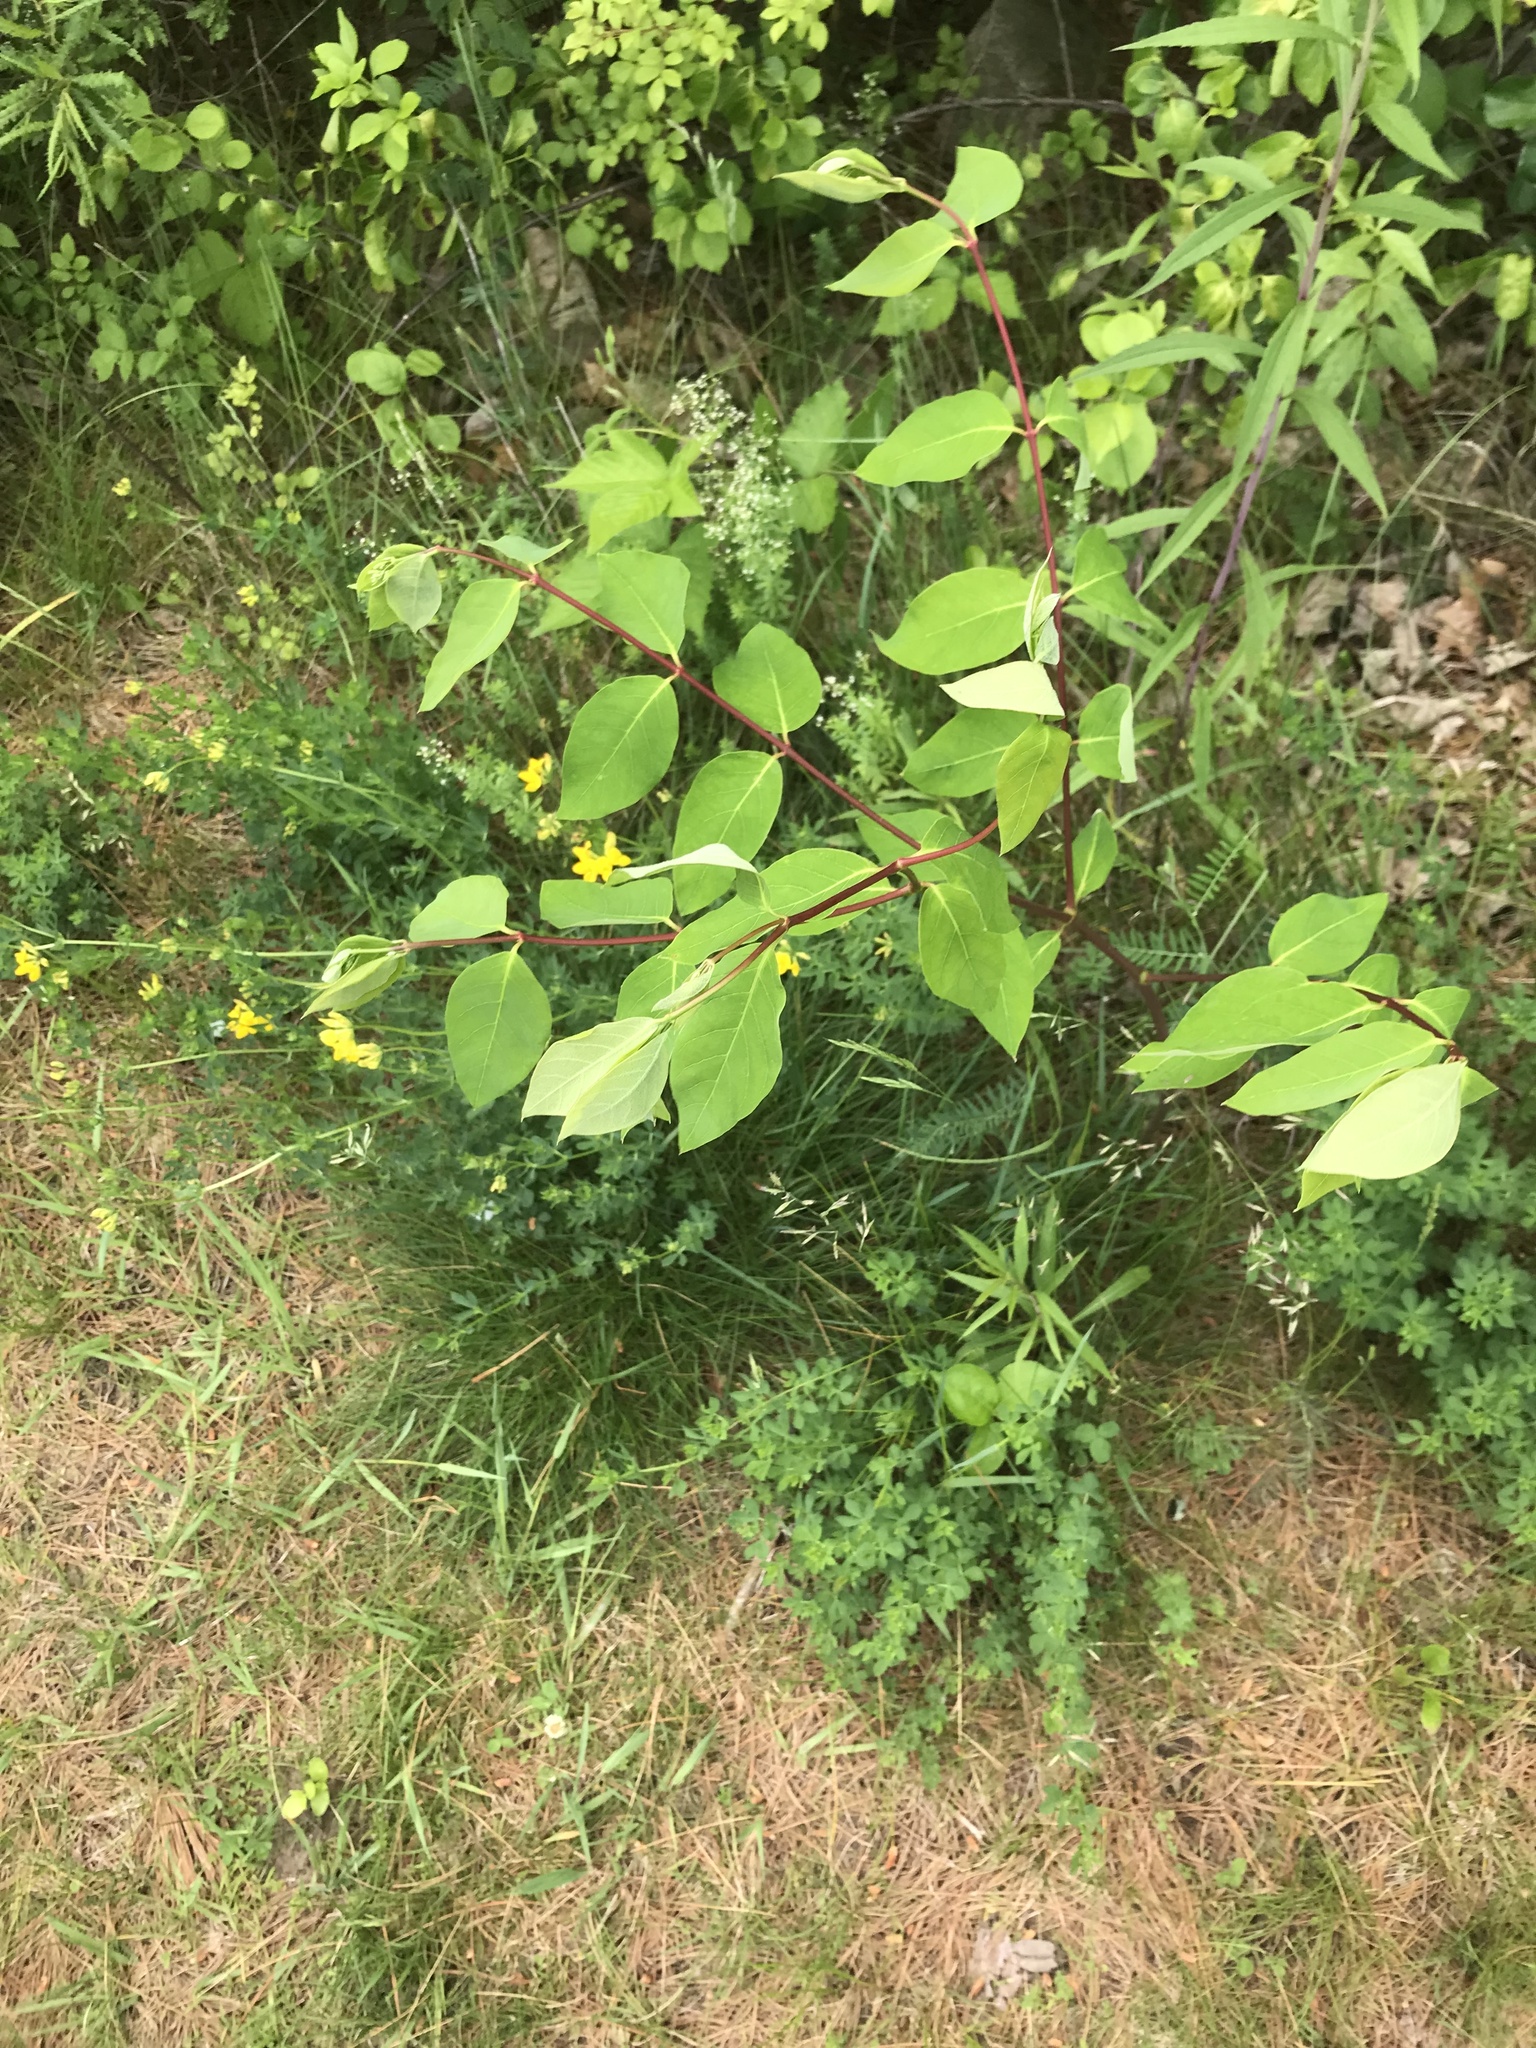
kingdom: Plantae
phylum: Tracheophyta
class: Magnoliopsida
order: Gentianales
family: Apocynaceae
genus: Apocynum
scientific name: Apocynum androsaemifolium
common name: Spreading dogbane
